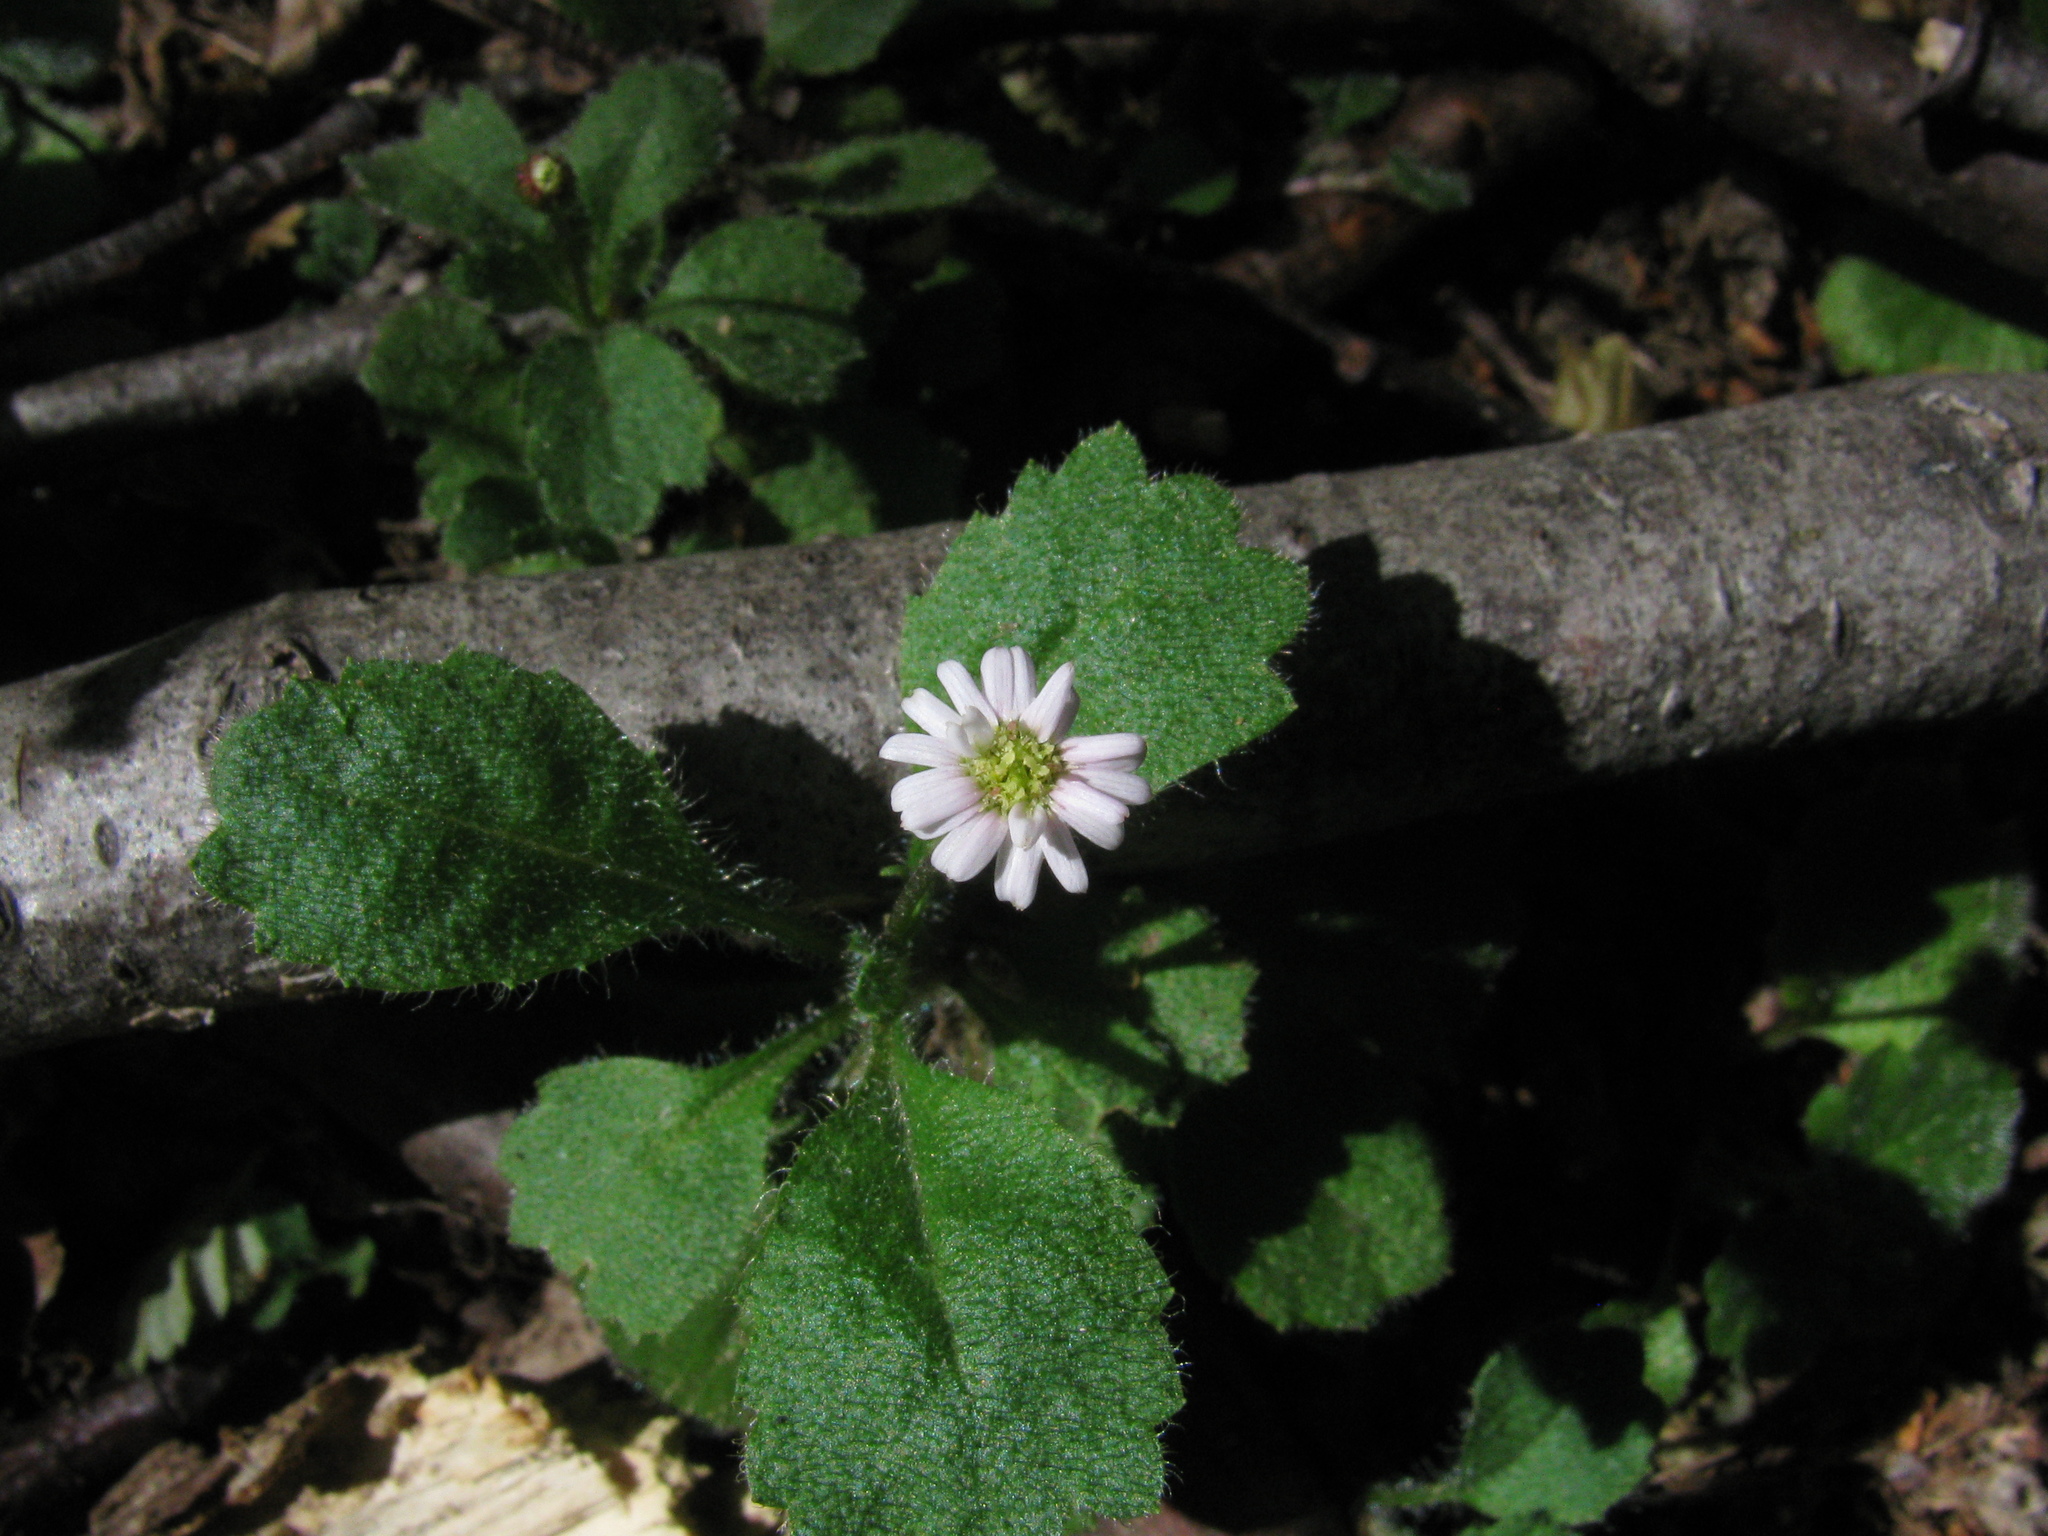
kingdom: Plantae
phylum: Tracheophyta
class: Magnoliopsida
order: Asterales
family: Asteraceae
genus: Lagenophora
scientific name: Lagenophora hariotii
